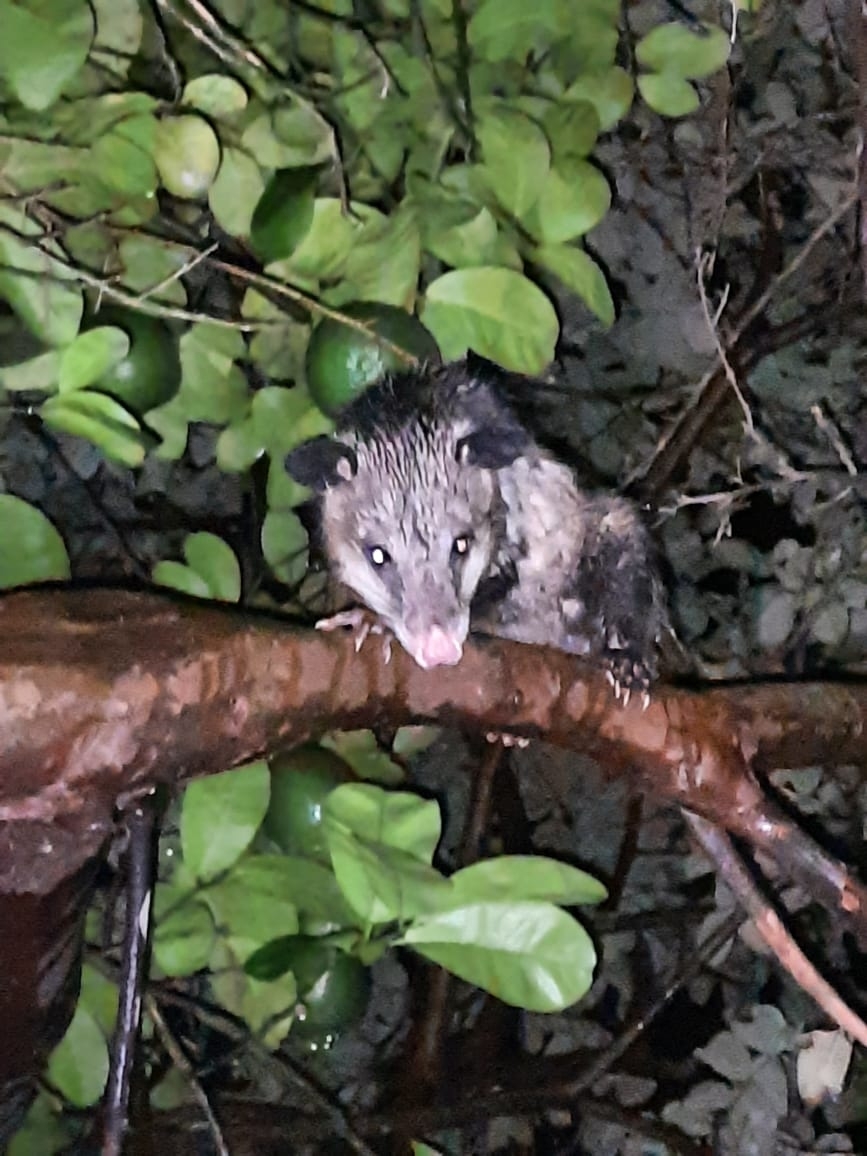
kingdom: Animalia
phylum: Chordata
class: Mammalia
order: Didelphimorphia
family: Didelphidae
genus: Didelphis
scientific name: Didelphis virginiana
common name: Virginia opossum
